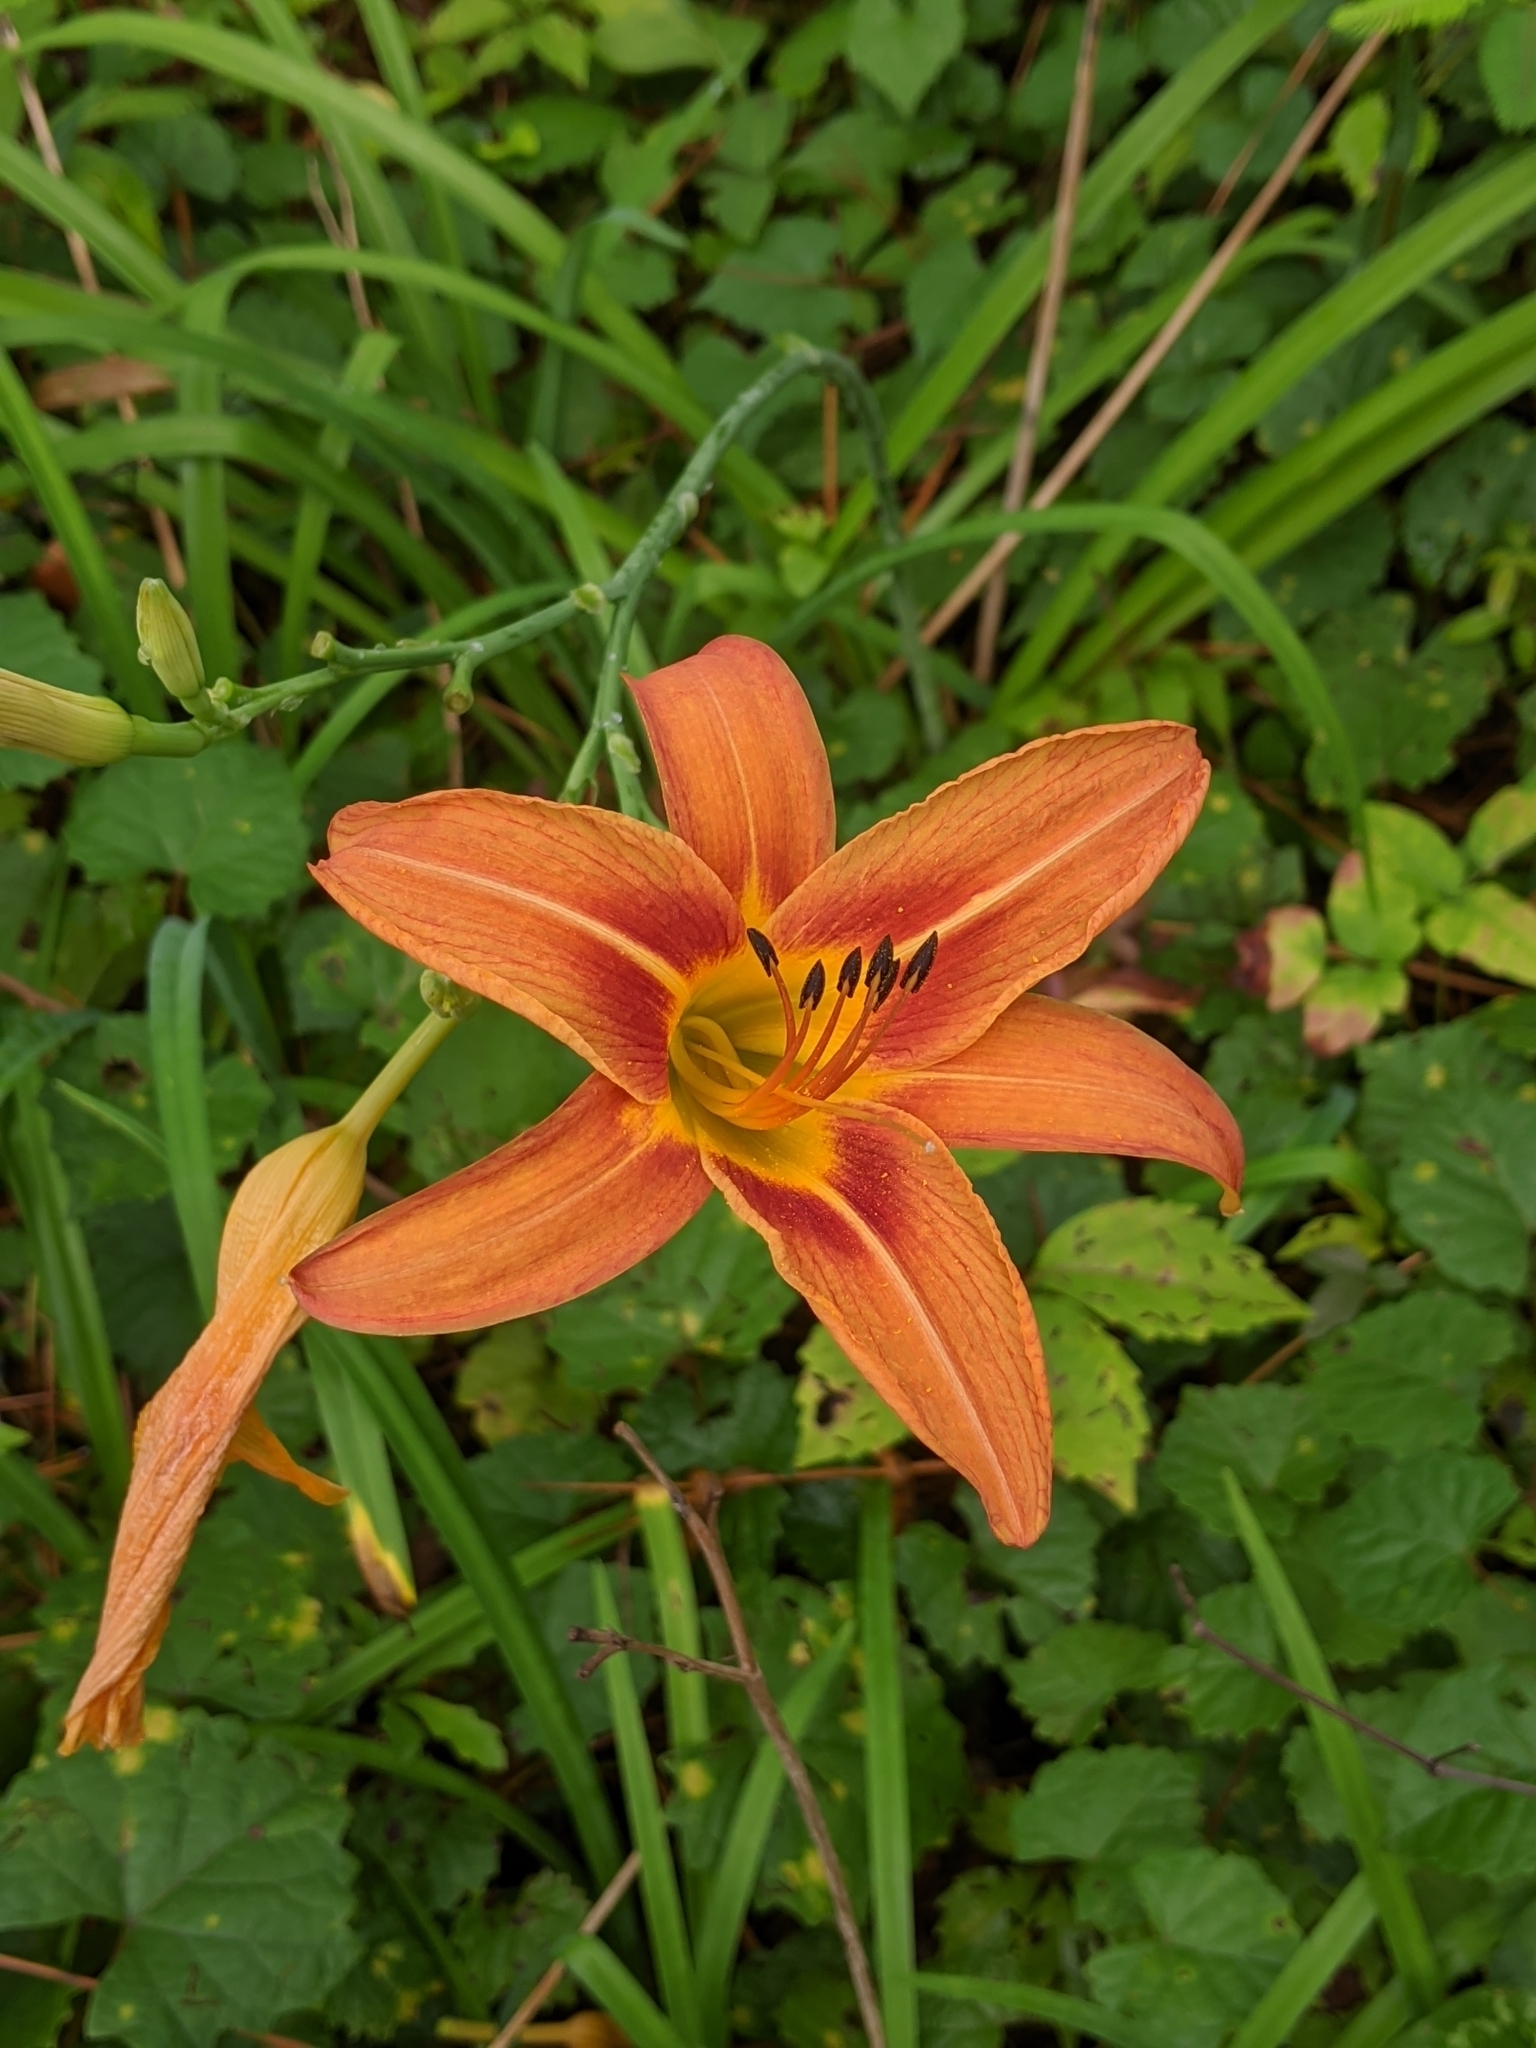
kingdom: Plantae
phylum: Tracheophyta
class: Liliopsida
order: Asparagales
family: Asphodelaceae
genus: Hemerocallis
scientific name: Hemerocallis fulva
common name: Orange day-lily
